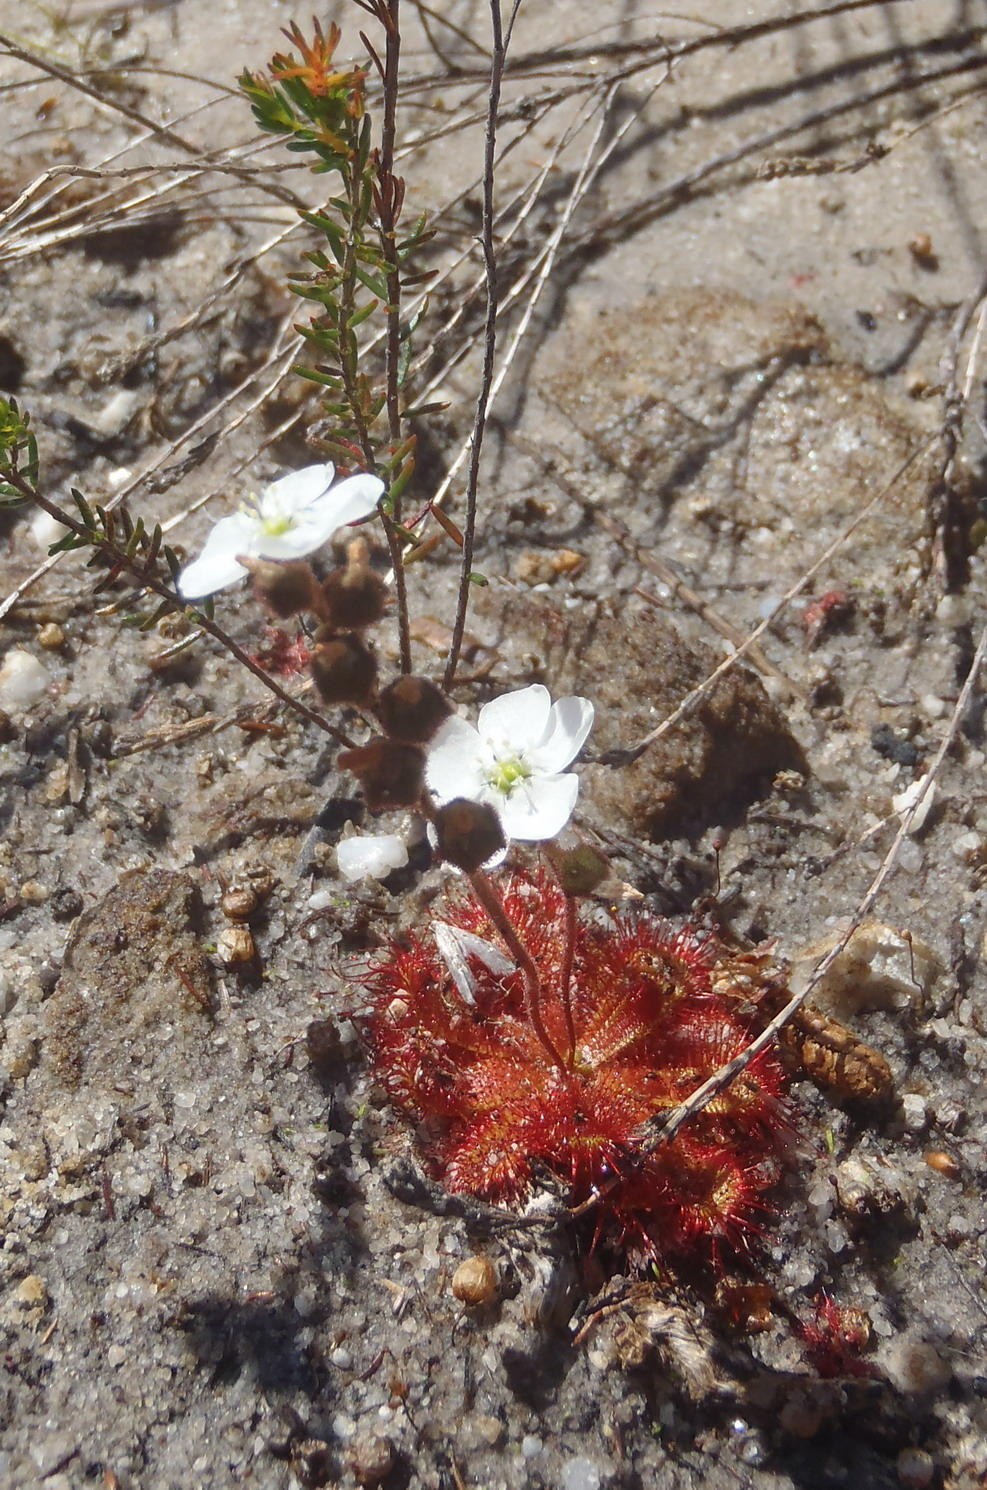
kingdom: Plantae
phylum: Tracheophyta
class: Magnoliopsida
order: Caryophyllales
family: Droseraceae
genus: Drosera
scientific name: Drosera trinervia
